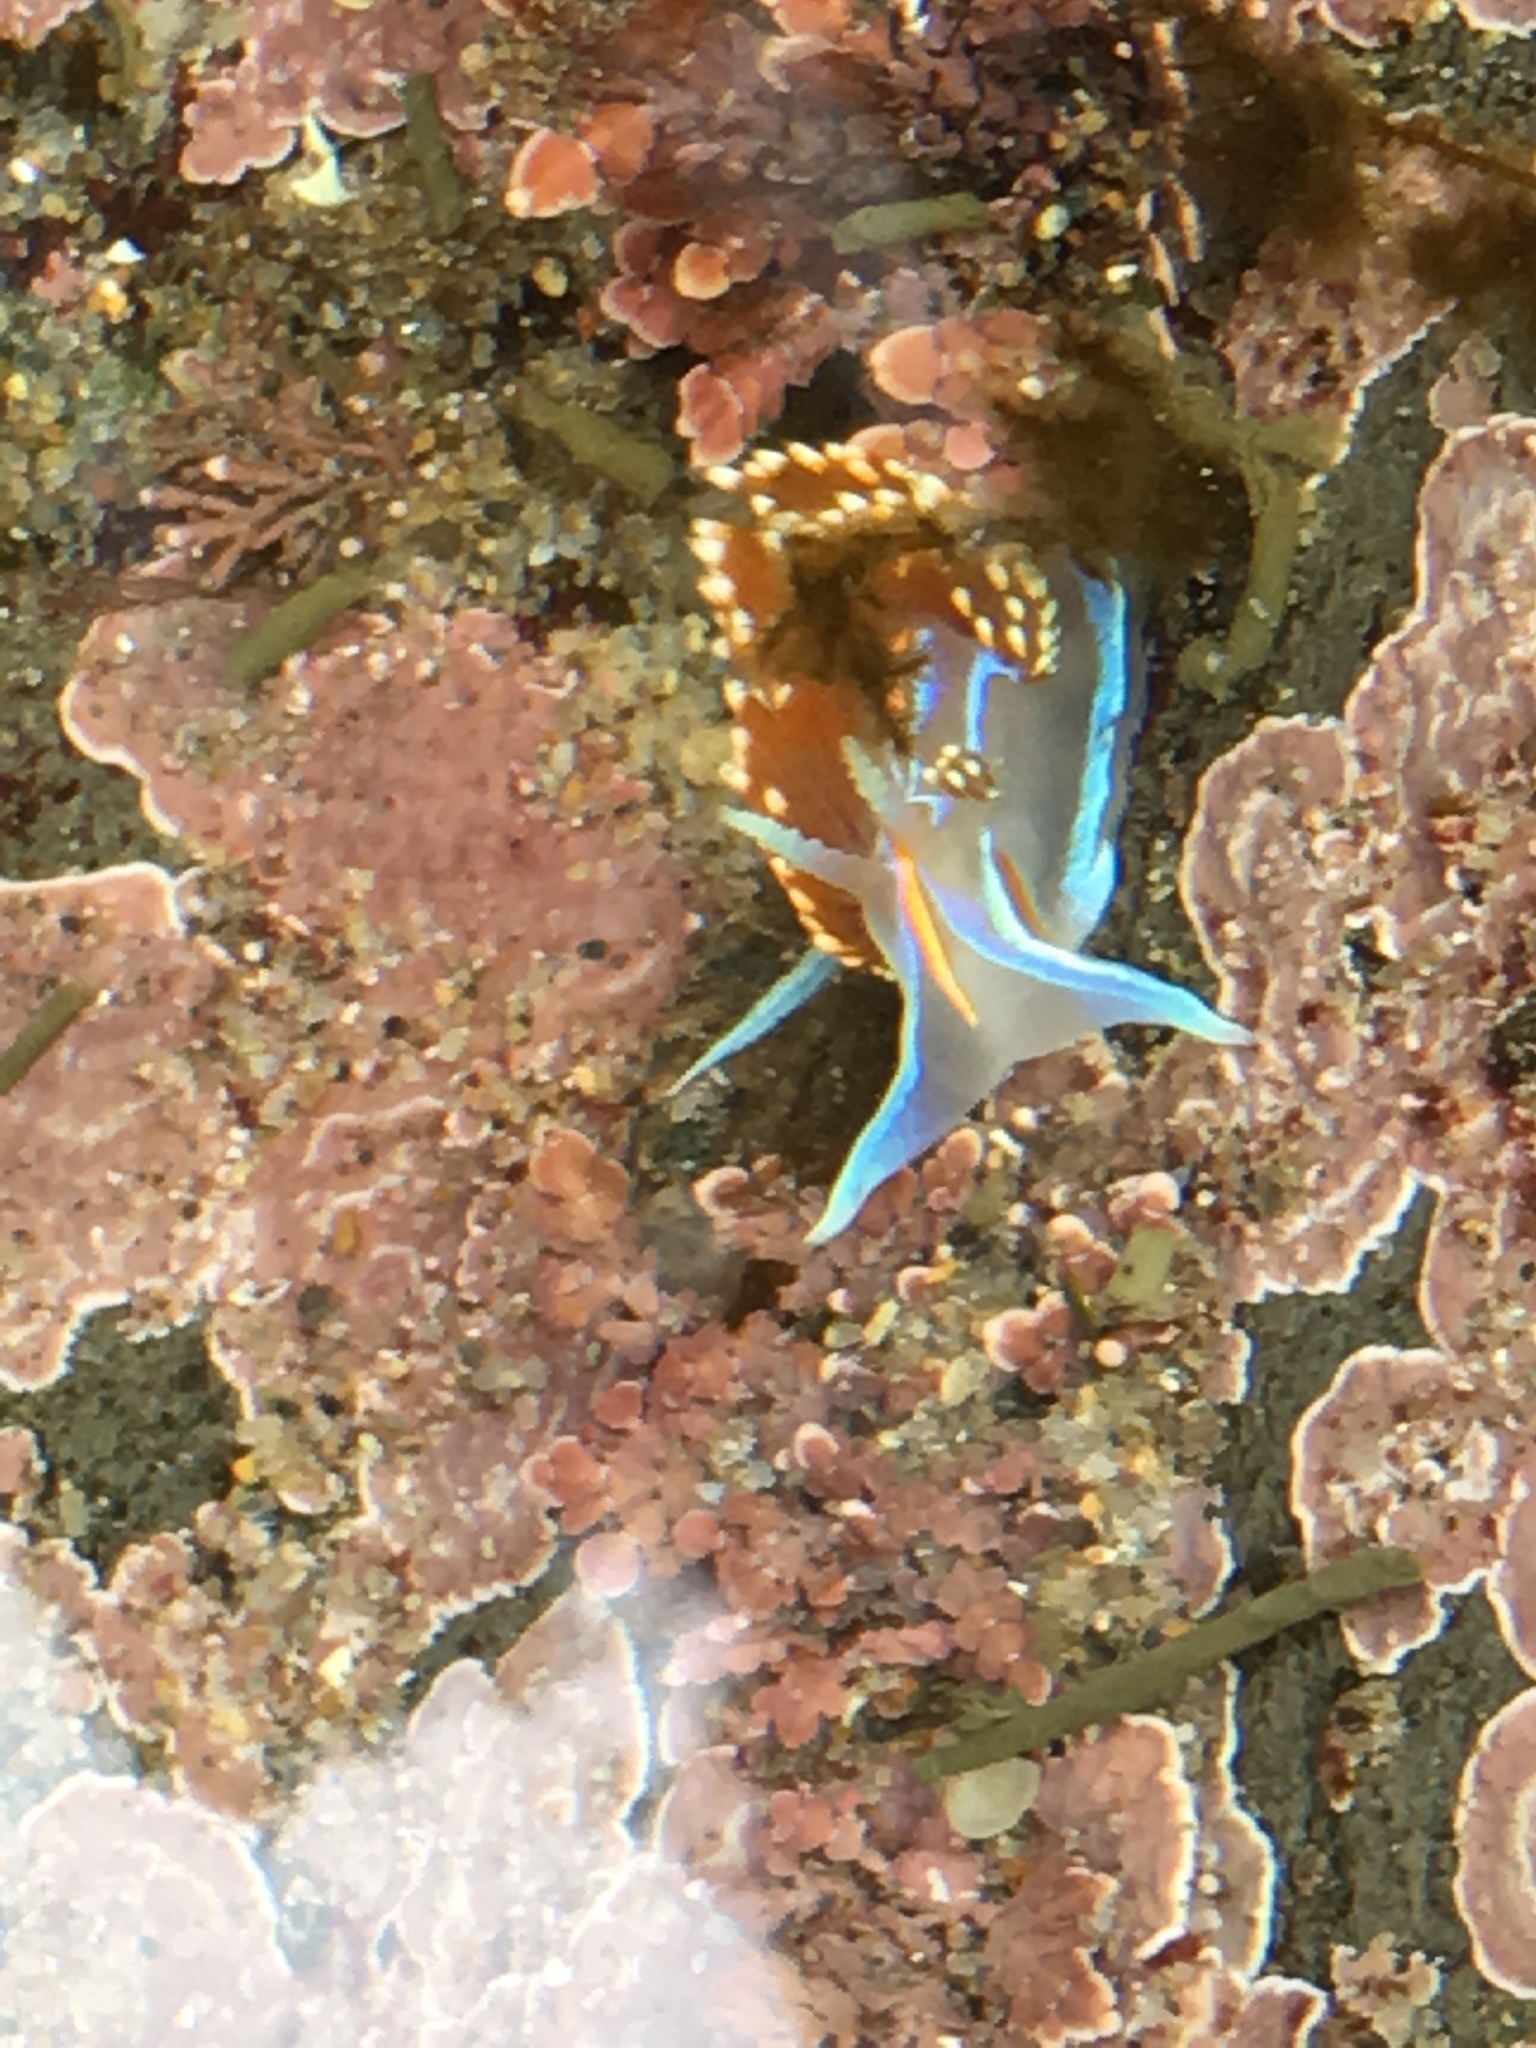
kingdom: Animalia
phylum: Mollusca
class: Gastropoda
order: Nudibranchia
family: Myrrhinidae
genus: Hermissenda
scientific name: Hermissenda opalescens
